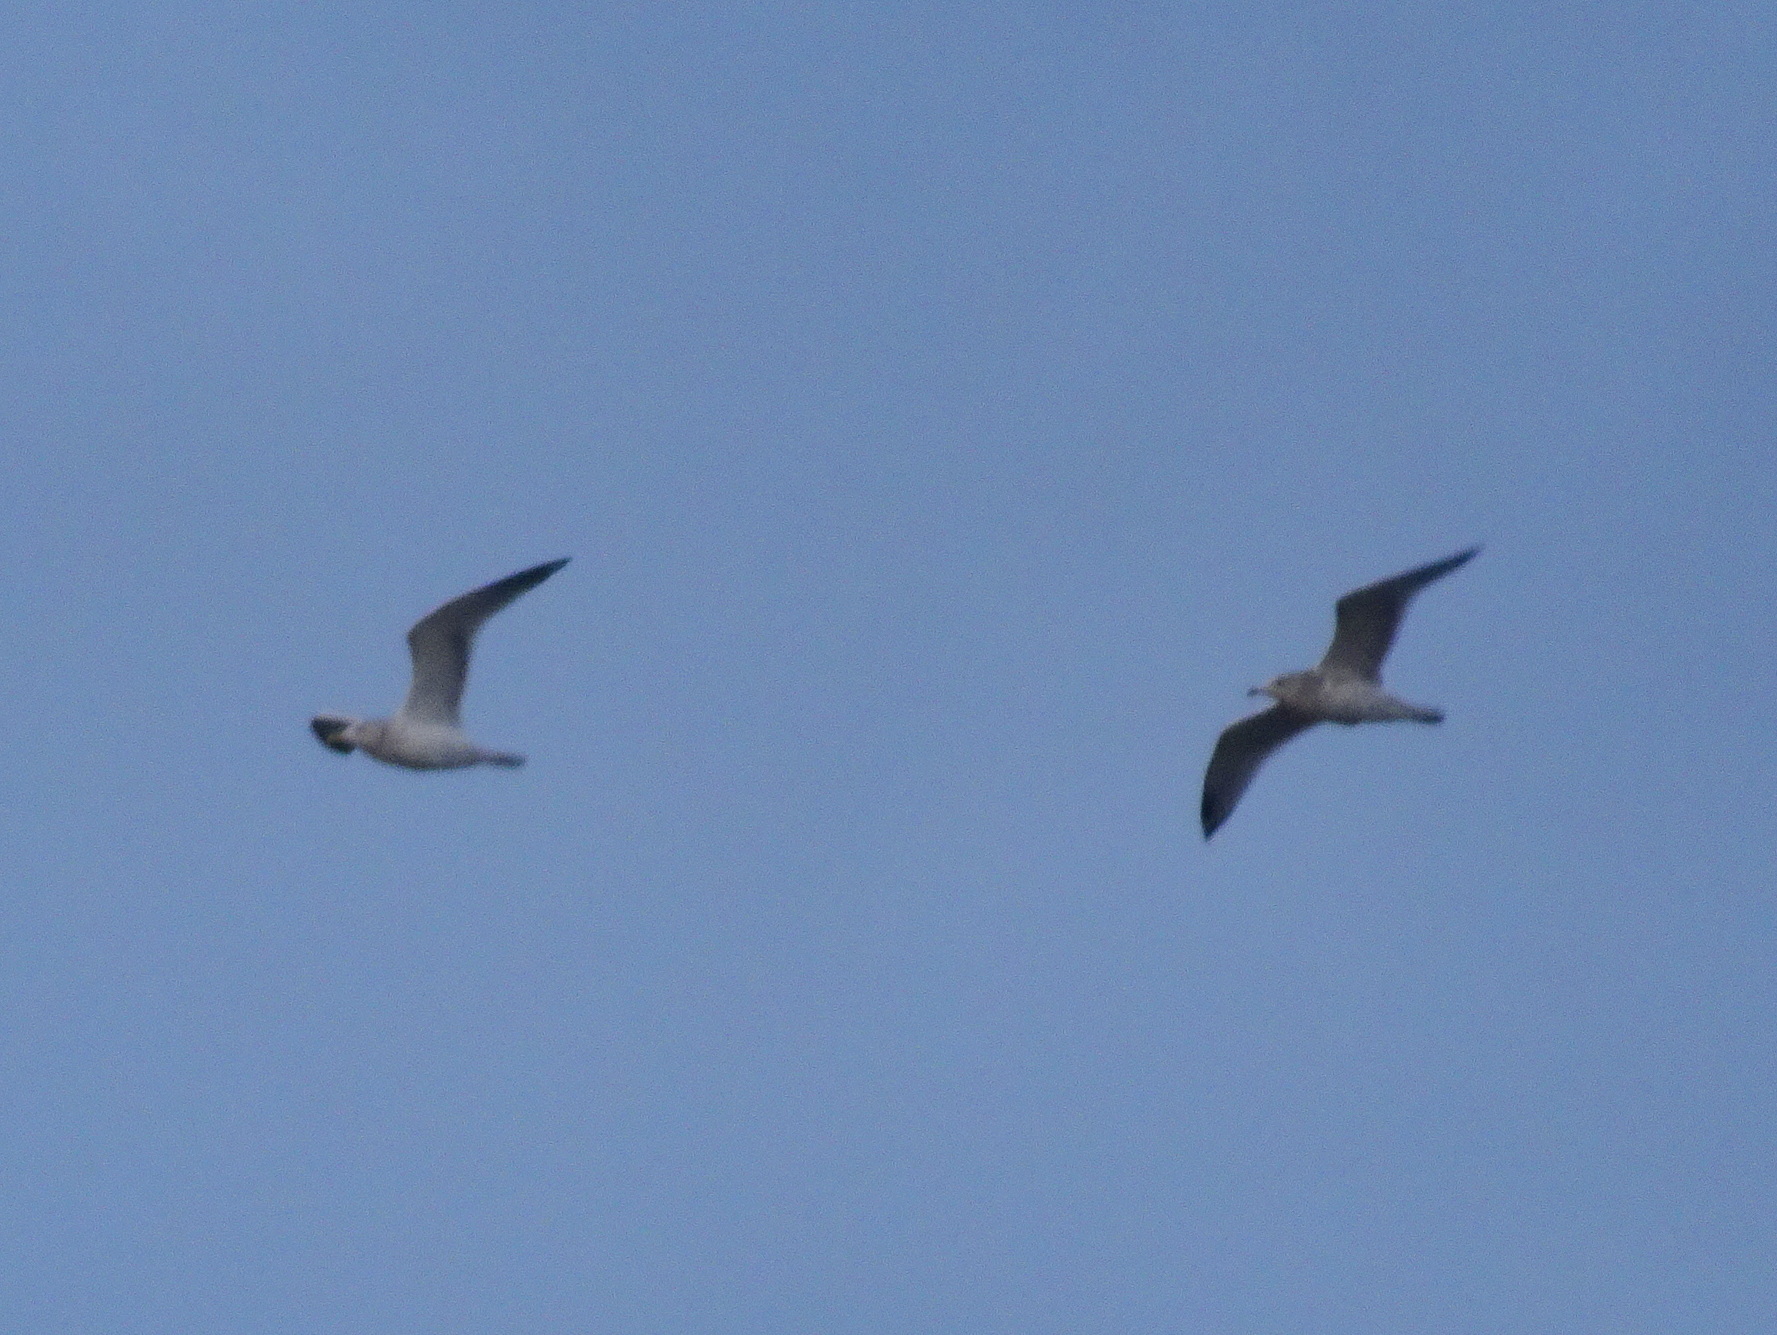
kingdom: Animalia
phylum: Chordata
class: Aves
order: Charadriiformes
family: Laridae
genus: Larus
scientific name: Larus argentatus
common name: Herring gull
